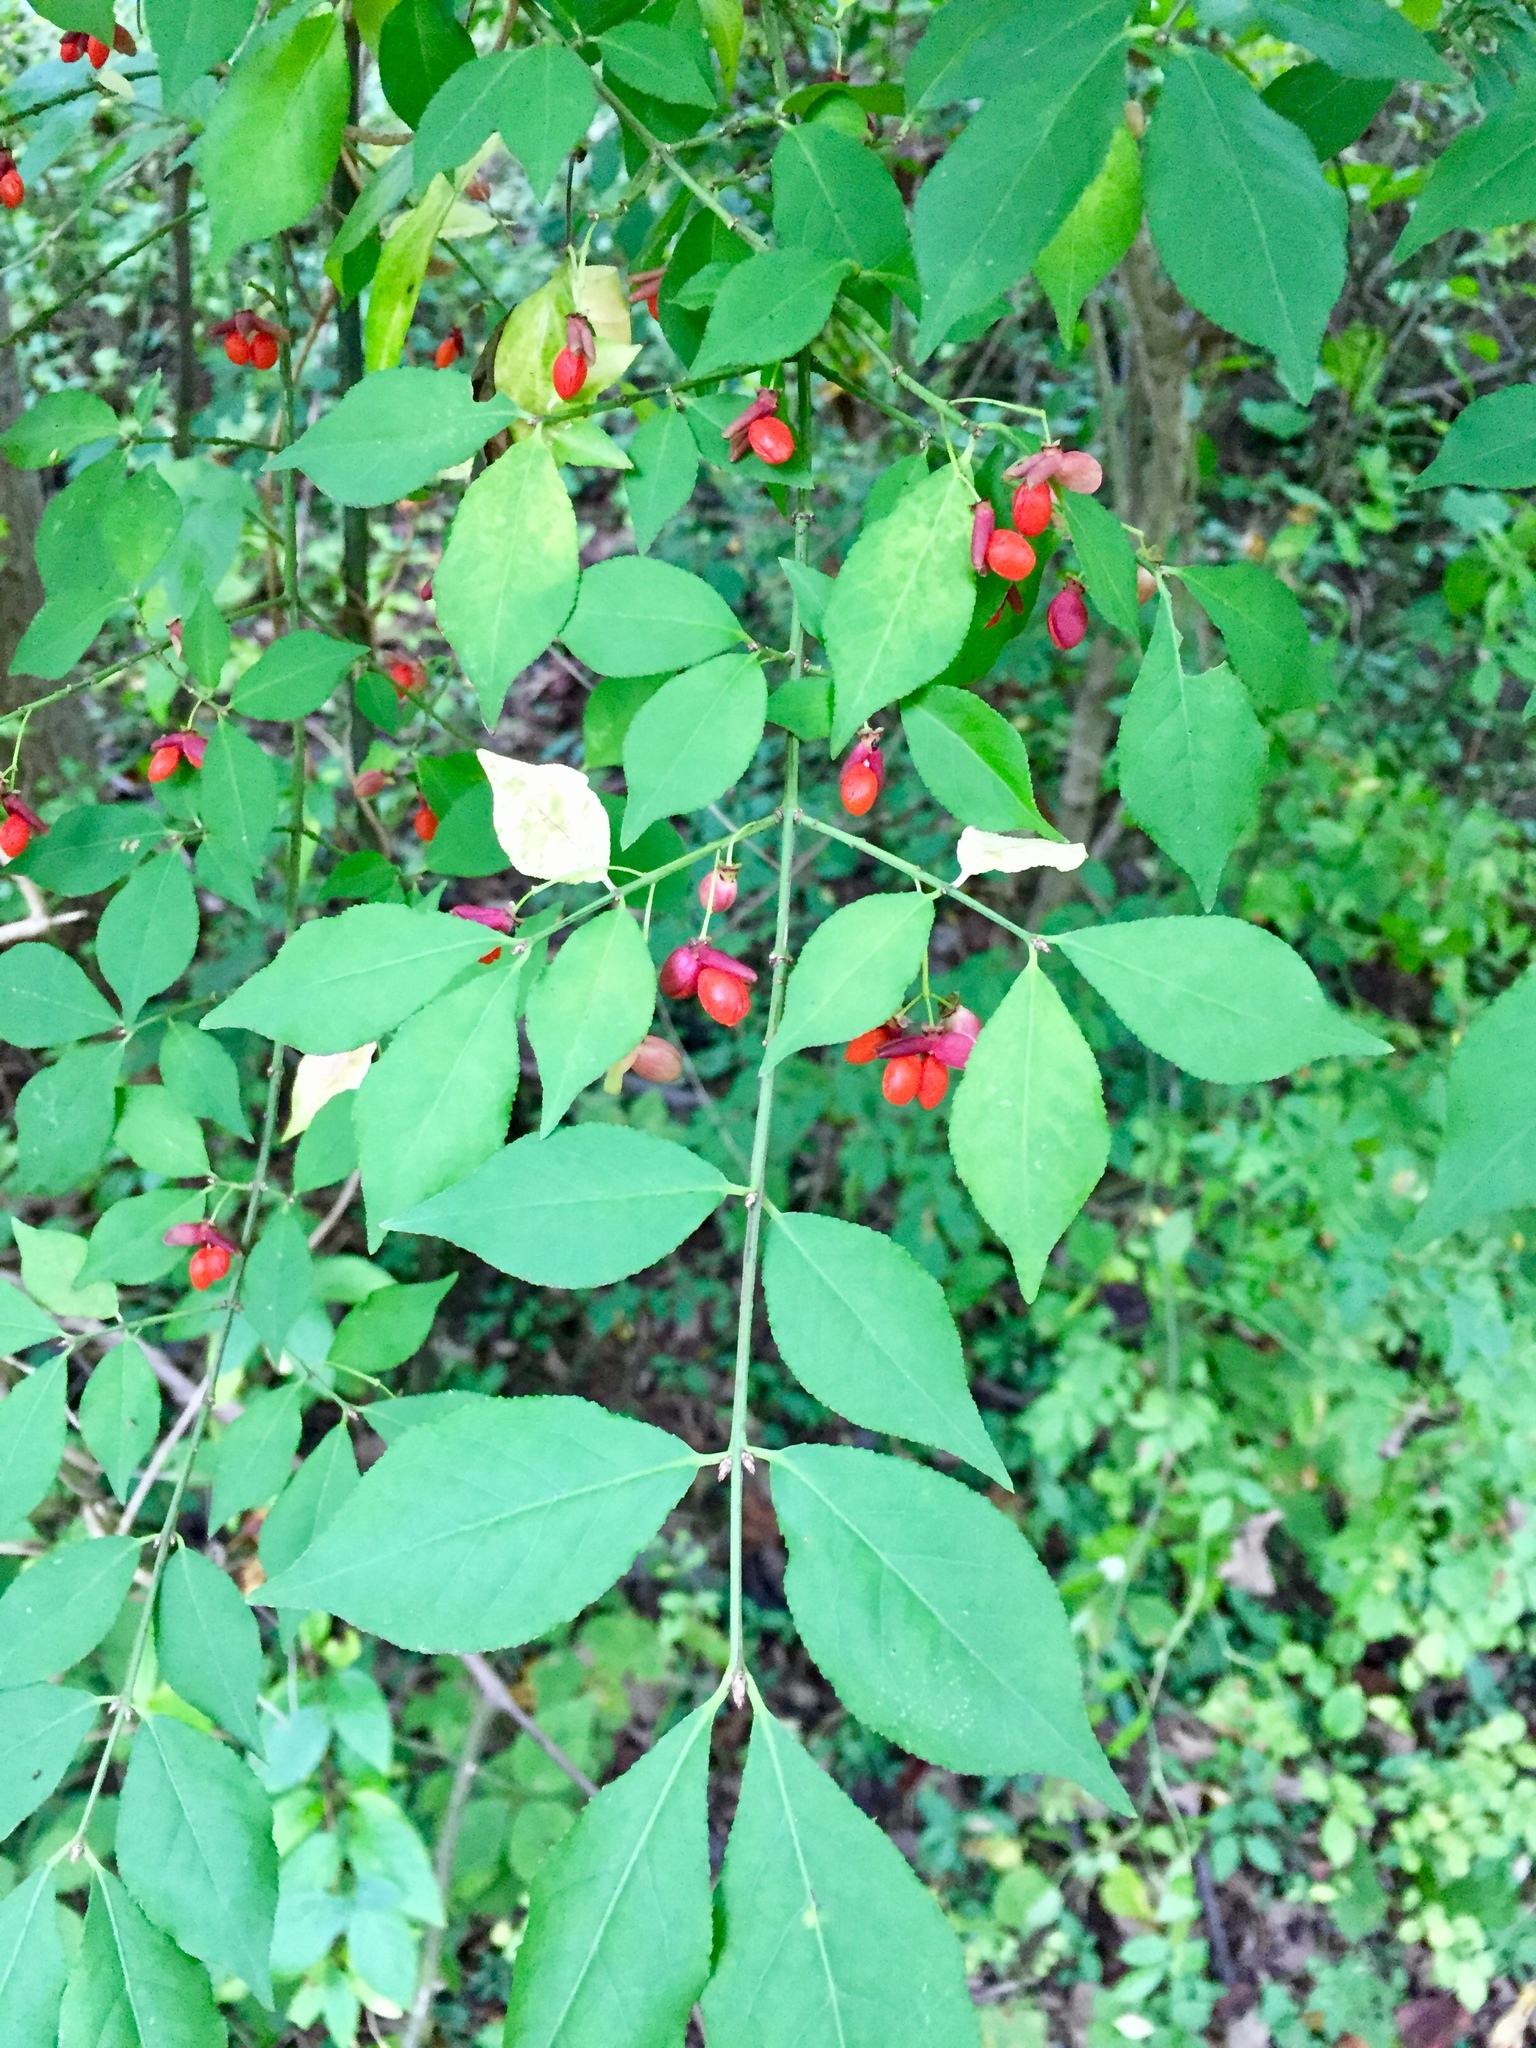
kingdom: Plantae
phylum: Tracheophyta
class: Magnoliopsida
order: Celastrales
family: Celastraceae
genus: Euonymus
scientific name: Euonymus alatus
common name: Winged euonymus
